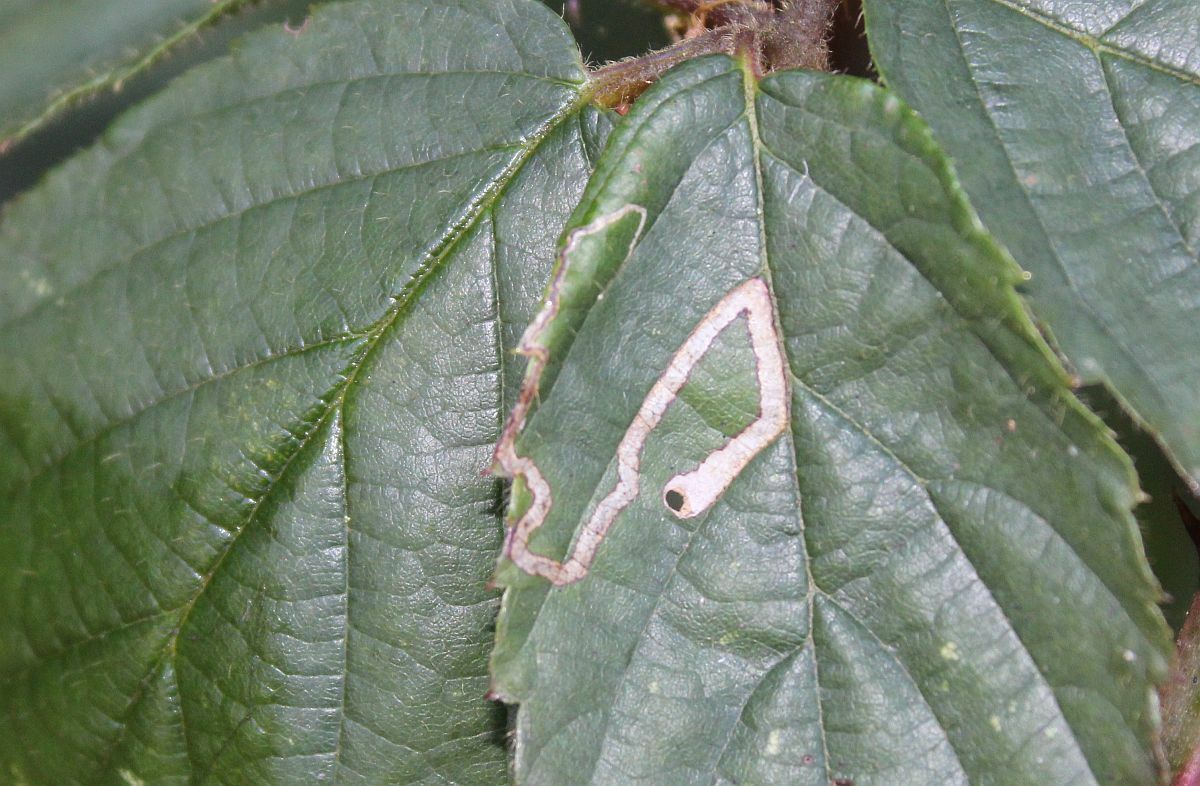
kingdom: Animalia
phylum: Arthropoda
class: Insecta
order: Lepidoptera
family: Nepticulidae
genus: Stigmella
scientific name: Stigmella aurella
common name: Golden pigmy
